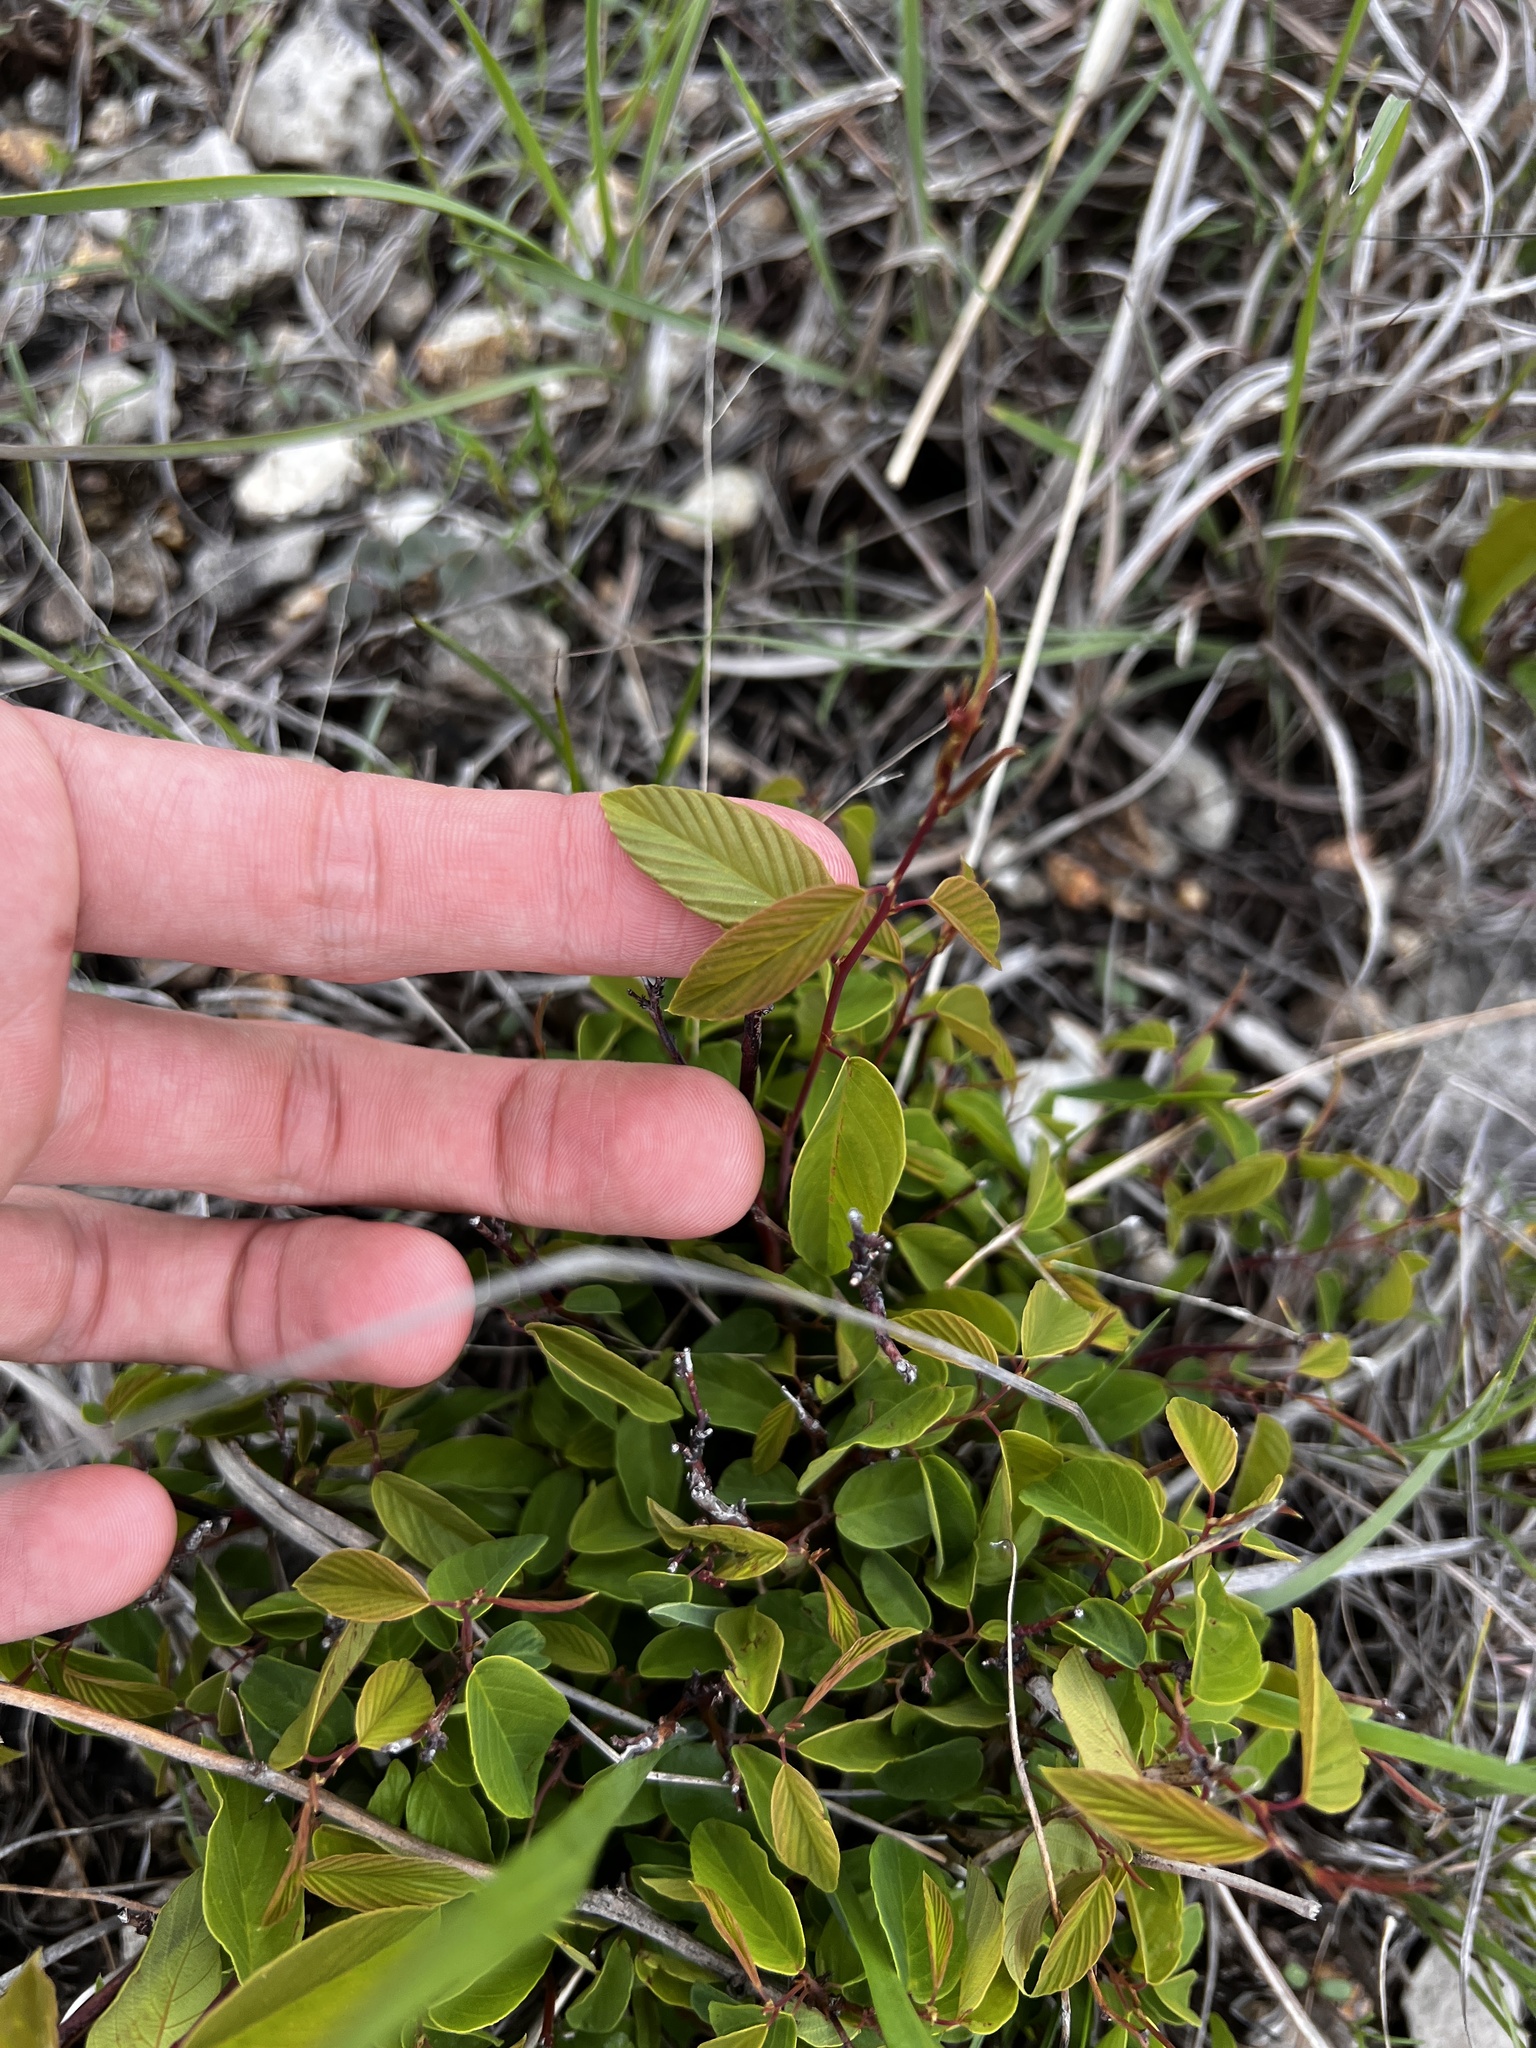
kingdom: Plantae
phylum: Tracheophyta
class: Magnoliopsida
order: Rosales
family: Rhamnaceae
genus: Berchemia
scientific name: Berchemia scandens
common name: Supplejack
